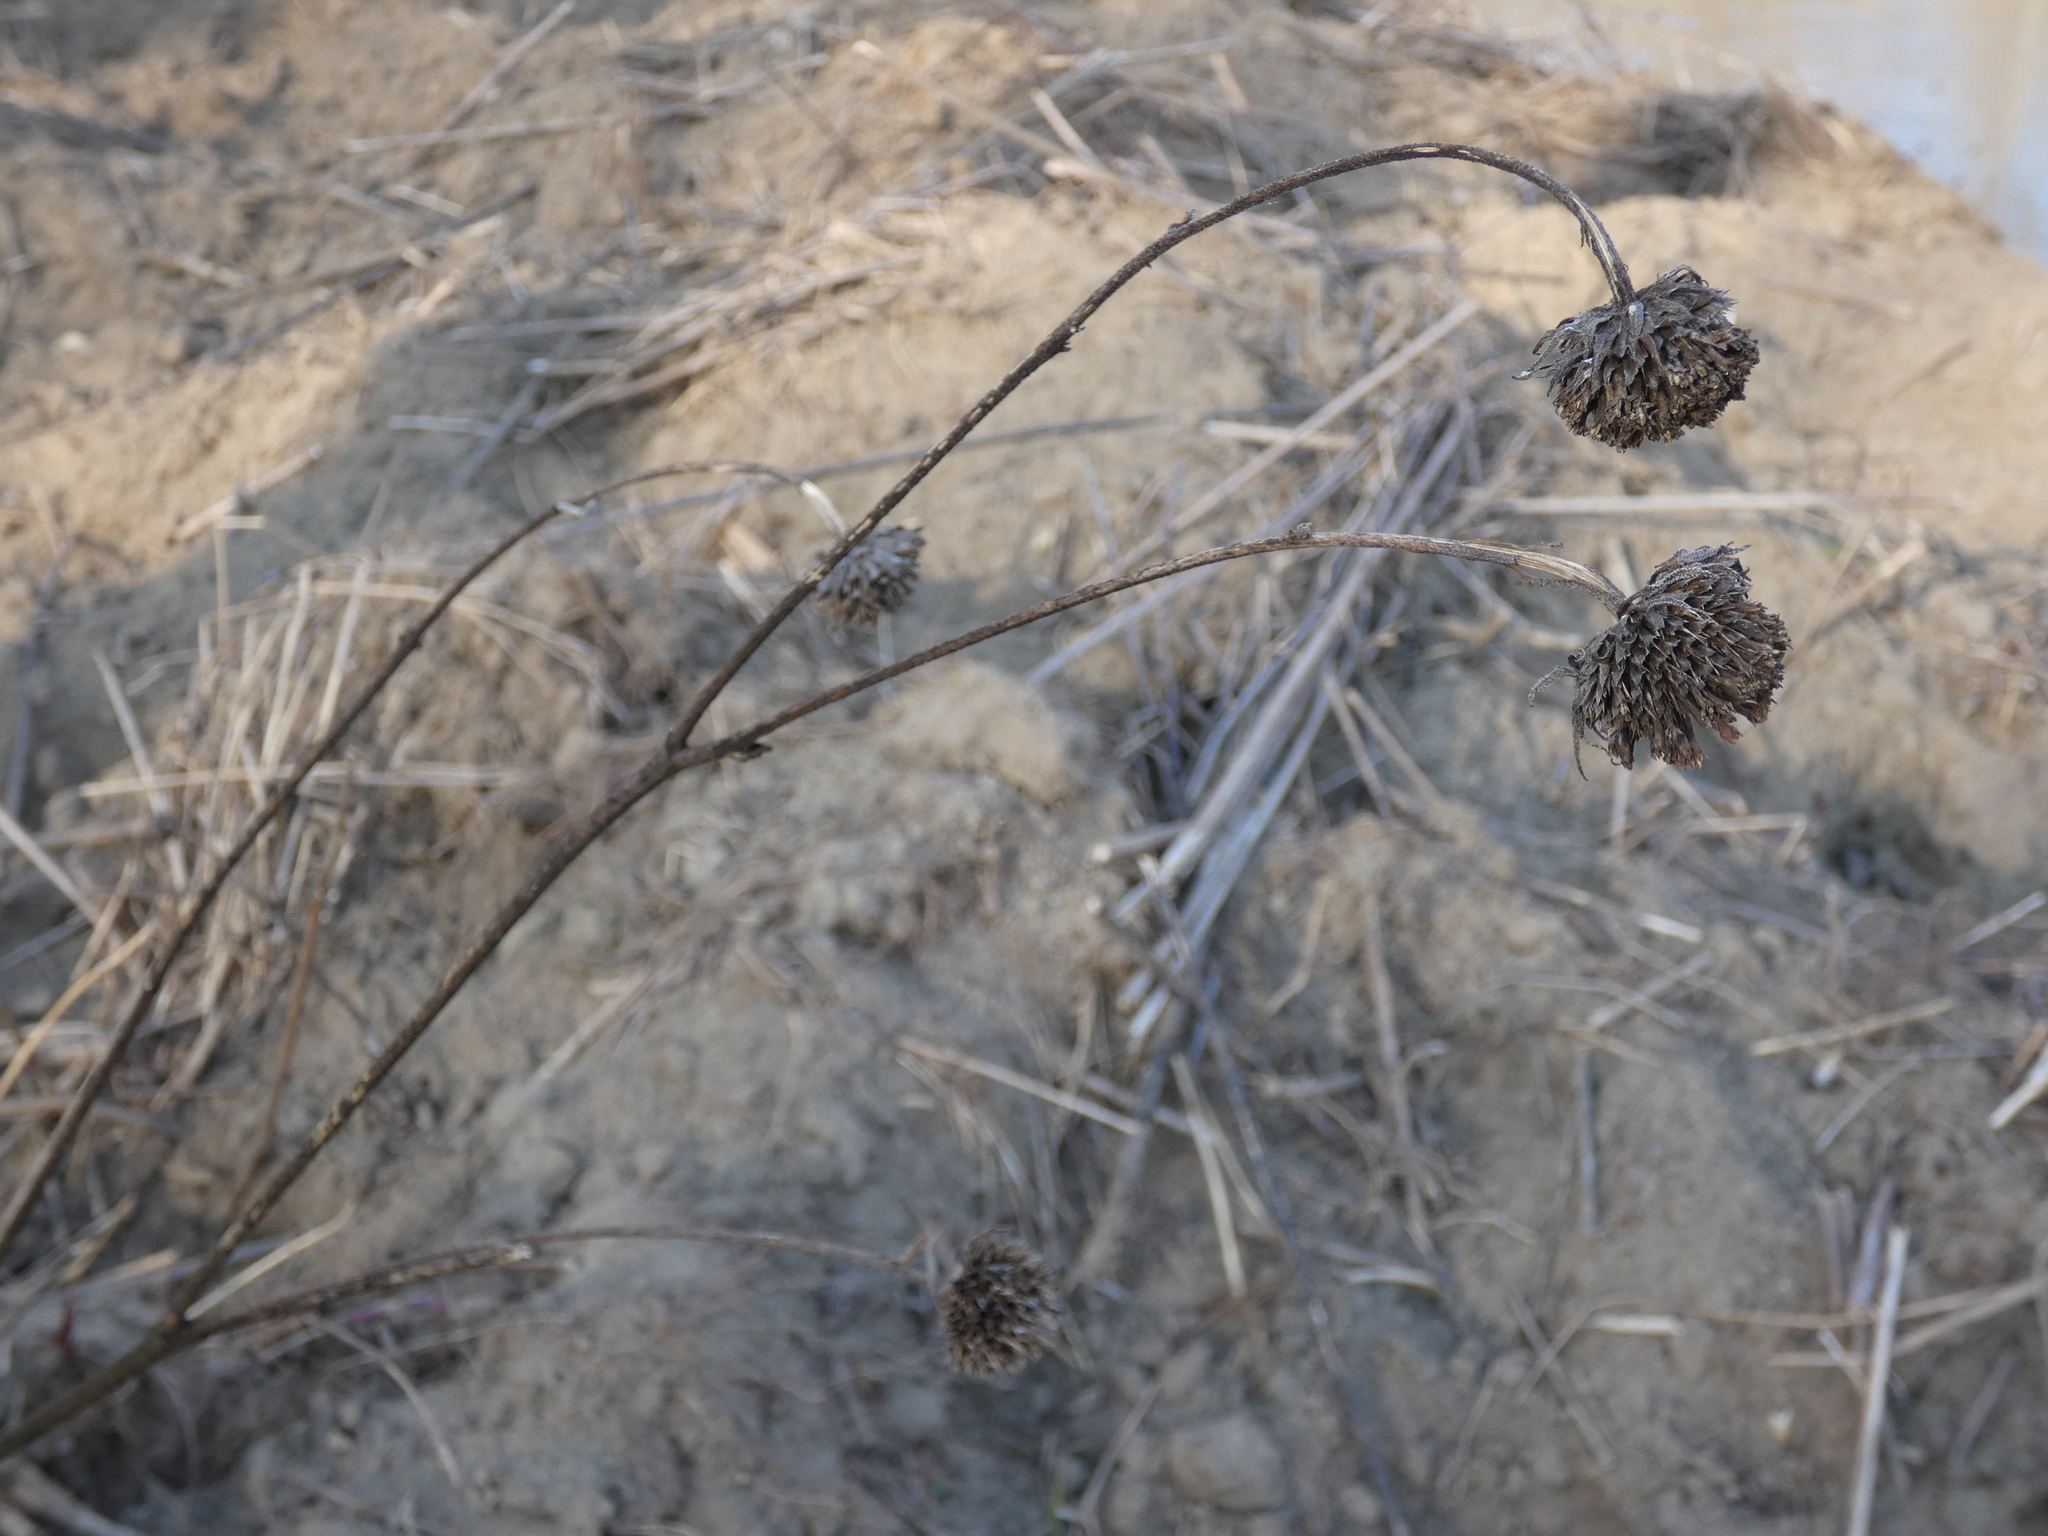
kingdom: Plantae
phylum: Tracheophyta
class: Magnoliopsida
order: Asterales
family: Asteraceae
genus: Helianthus
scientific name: Helianthus tuberosus
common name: Jerusalem artichoke
